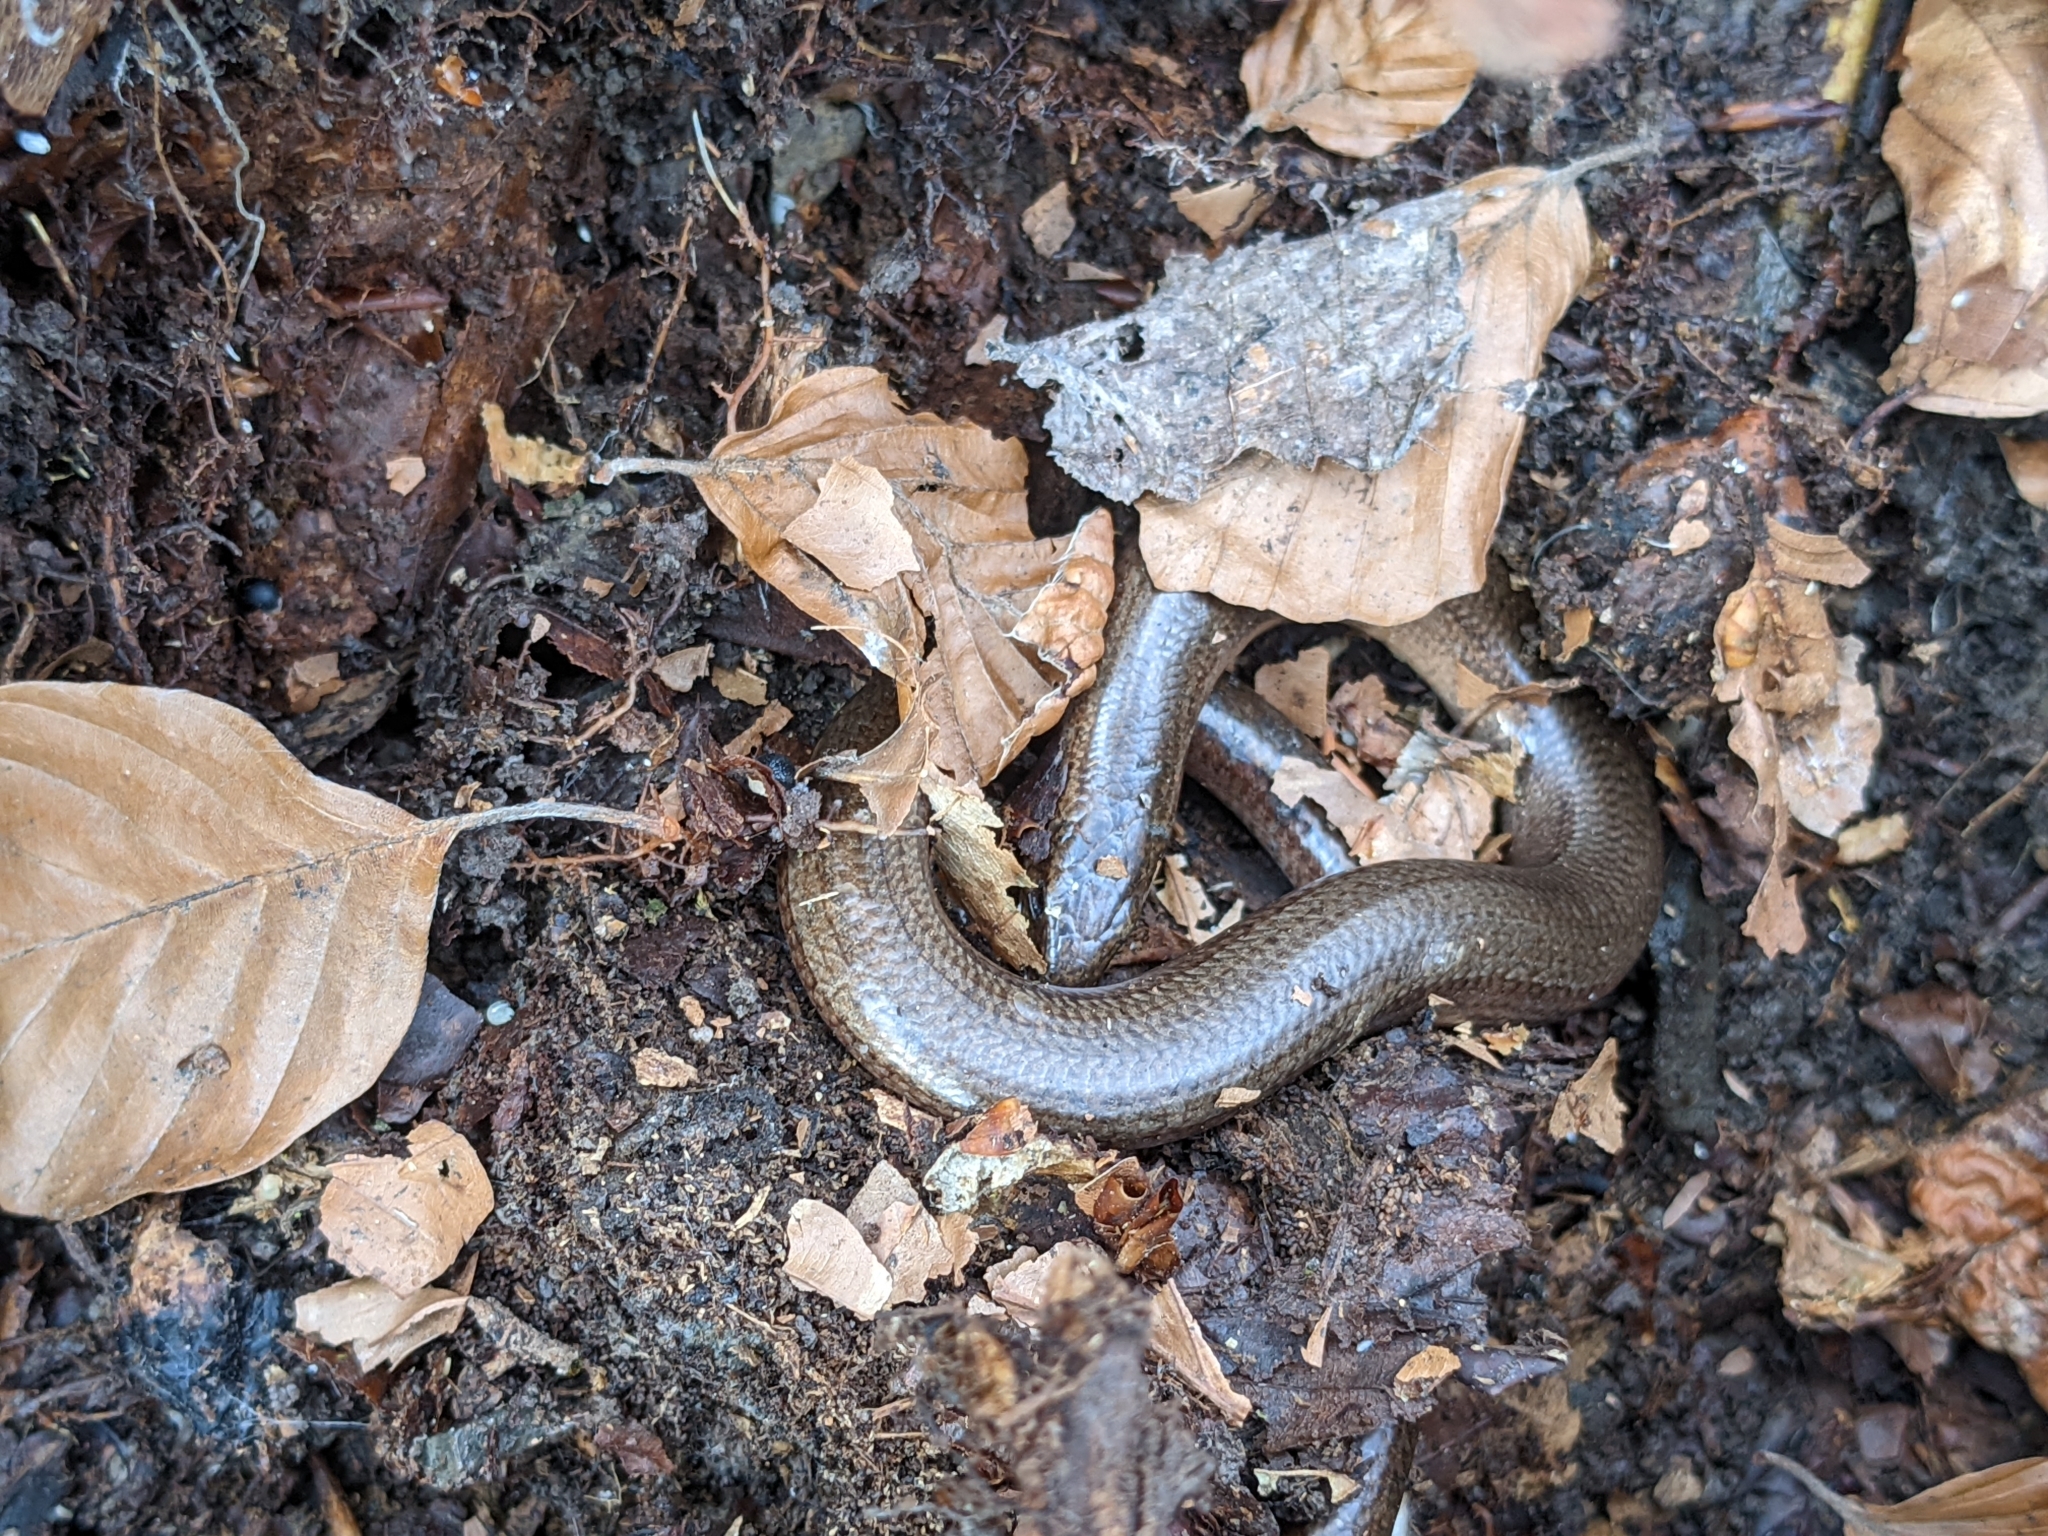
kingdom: Animalia
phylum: Chordata
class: Squamata
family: Anguidae
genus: Anguis
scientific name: Anguis fragilis
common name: Slow worm
